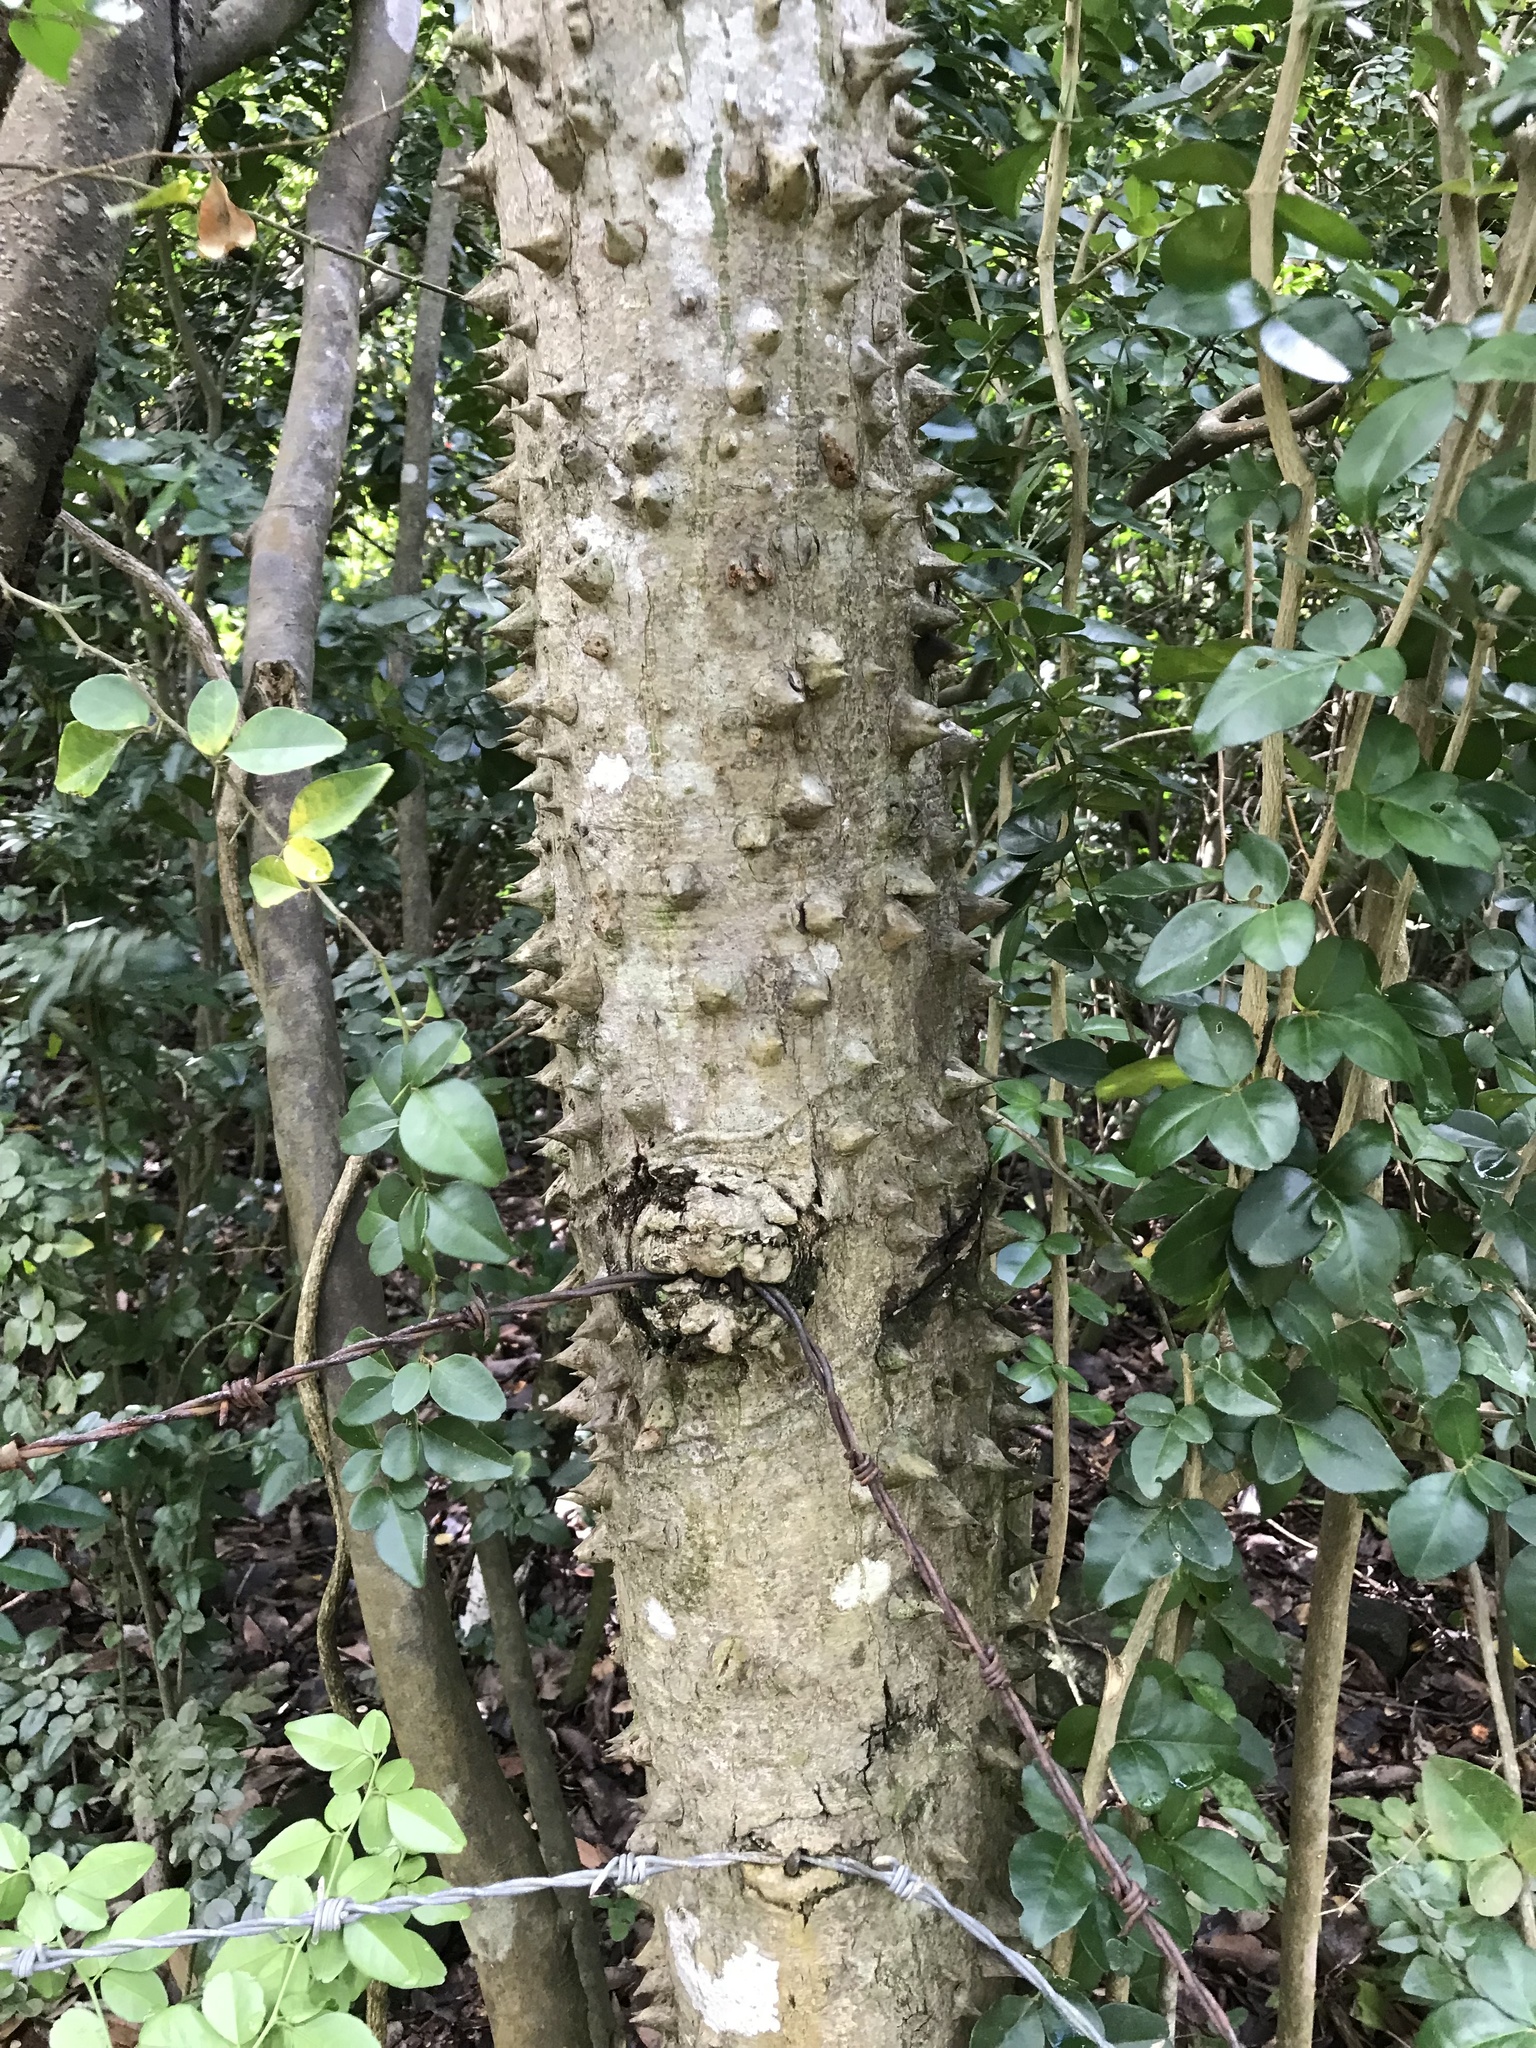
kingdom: Plantae
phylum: Tracheophyta
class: Magnoliopsida
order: Malpighiales
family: Euphorbiaceae
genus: Hura
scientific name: Hura crepitans
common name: Sandboxtree
